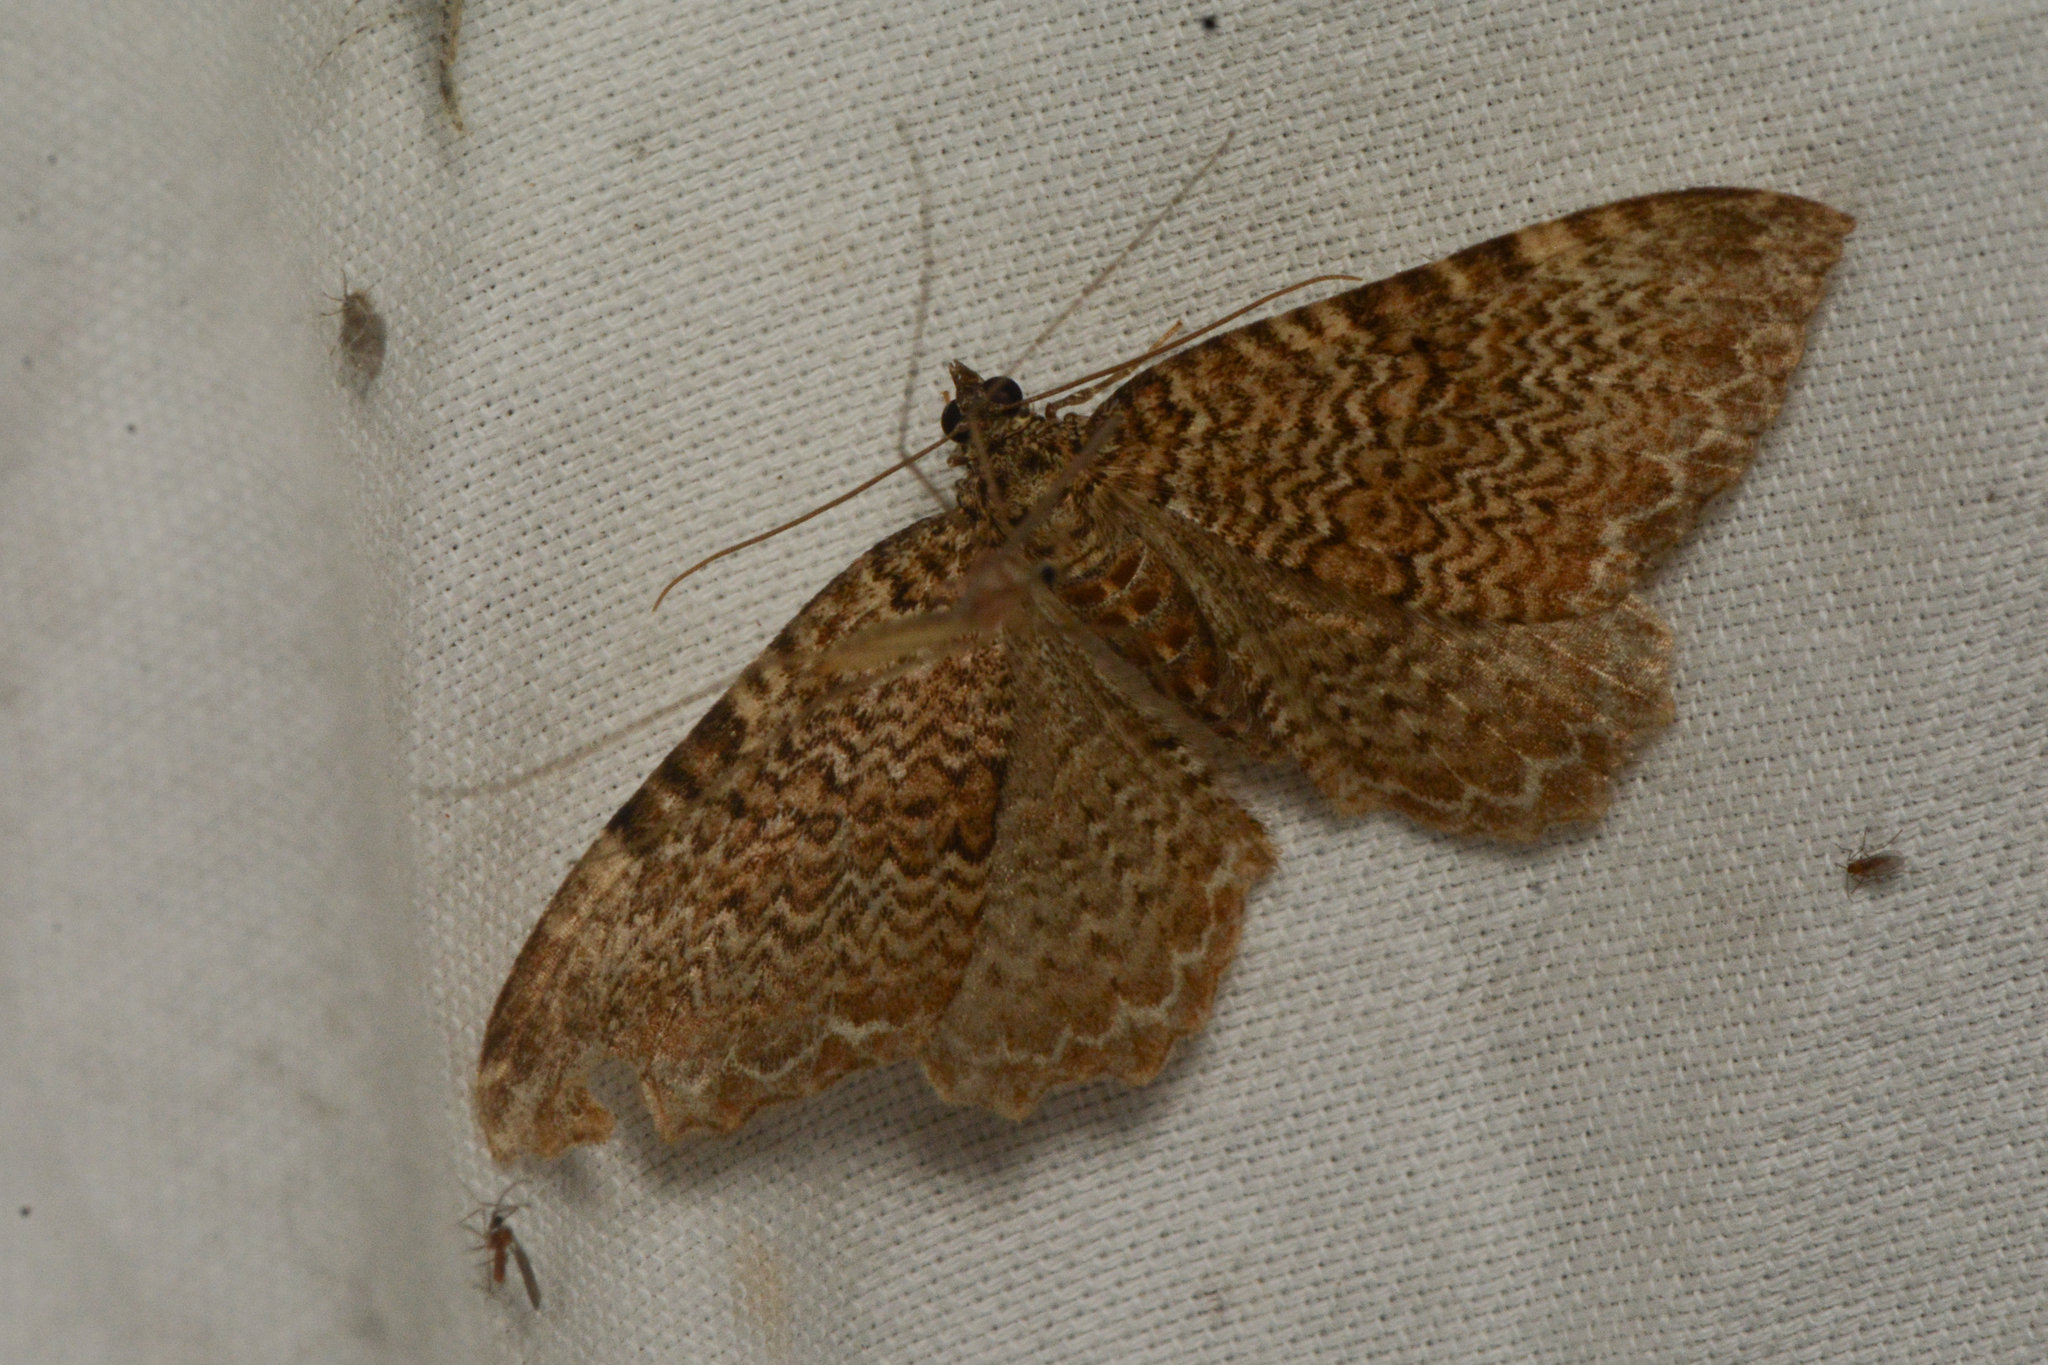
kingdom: Animalia
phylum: Arthropoda
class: Insecta
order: Lepidoptera
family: Geometridae
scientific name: Geometridae
